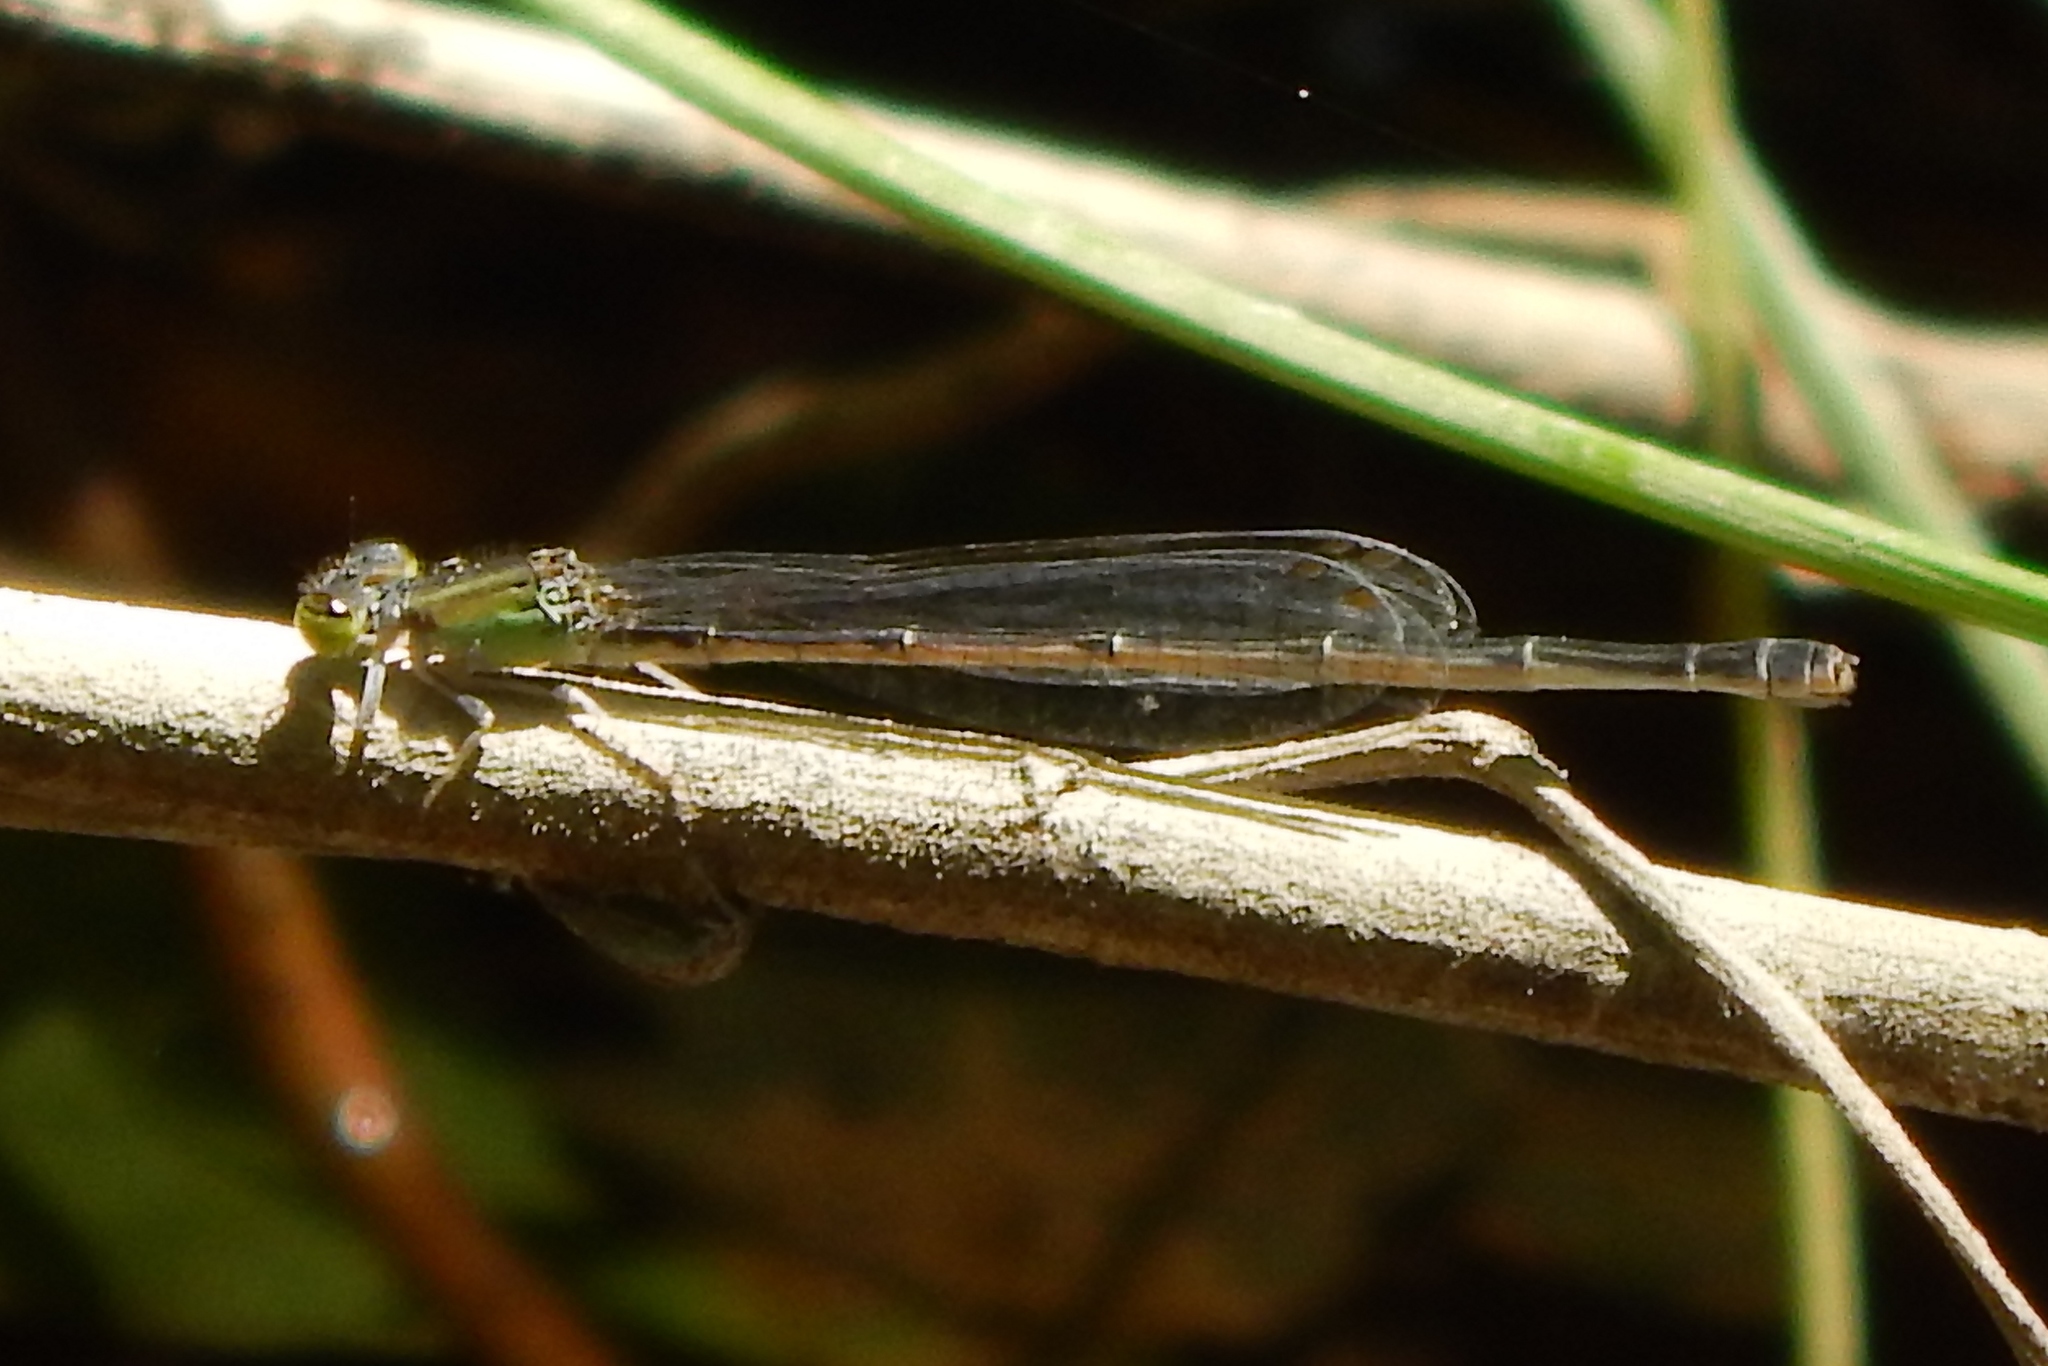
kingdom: Animalia
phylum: Arthropoda
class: Insecta
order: Odonata
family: Coenagrionidae
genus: Ischnura
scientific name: Ischnura ramburii
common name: Rambur's forktail
